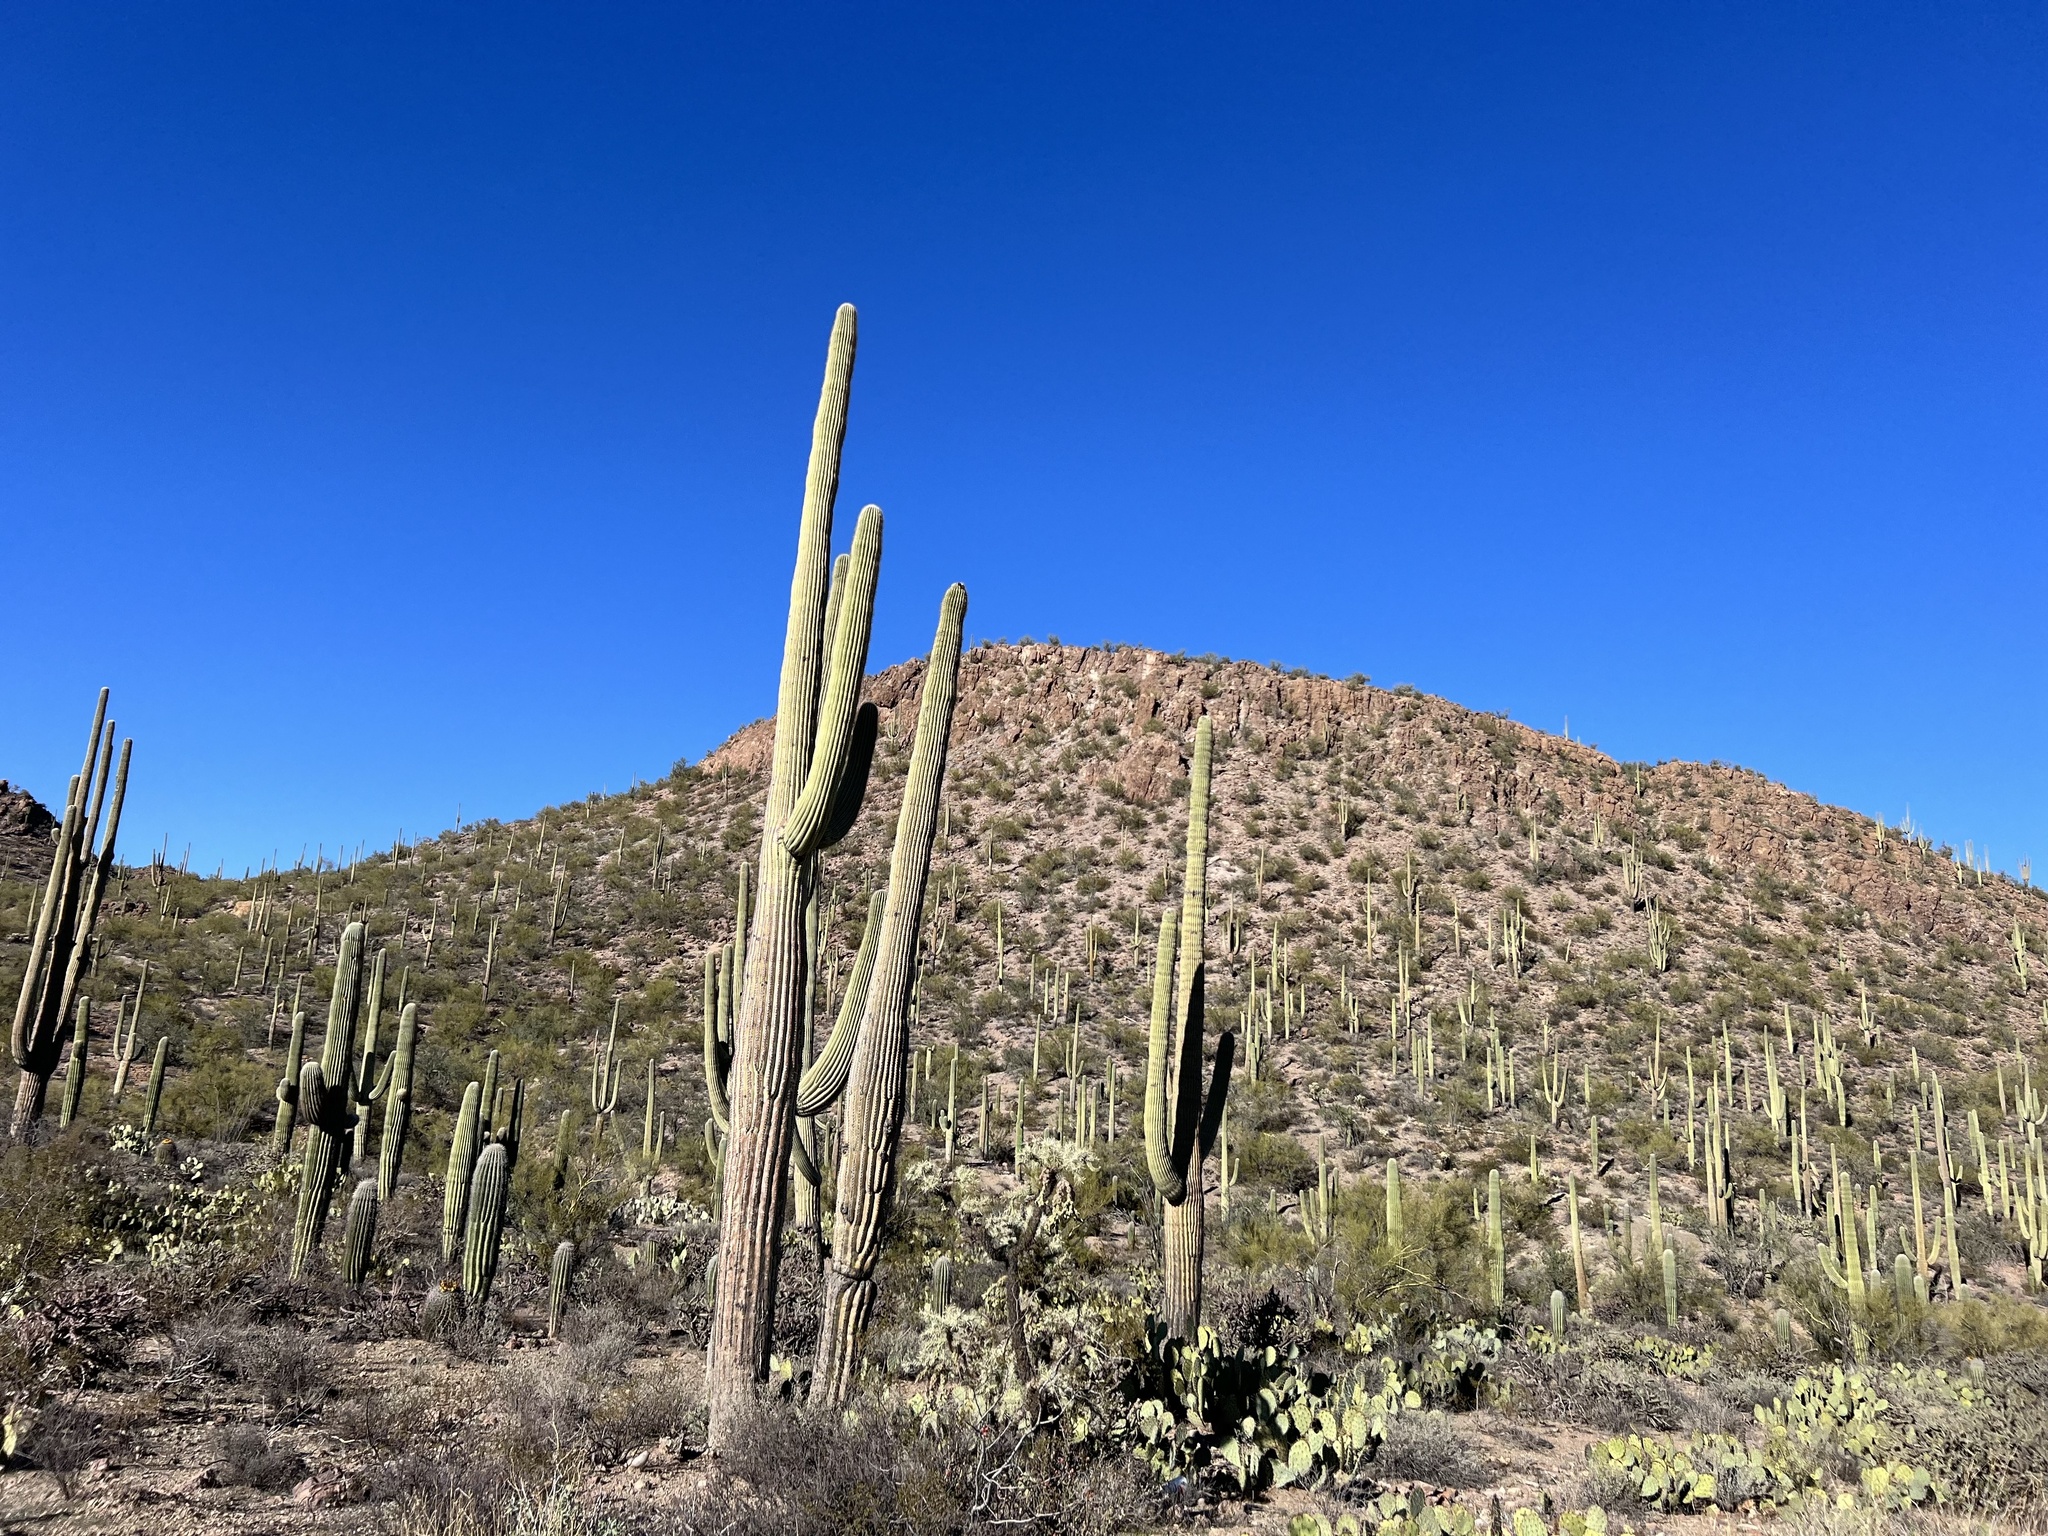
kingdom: Plantae
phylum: Tracheophyta
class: Magnoliopsida
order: Caryophyllales
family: Cactaceae
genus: Carnegiea
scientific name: Carnegiea gigantea
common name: Saguaro
